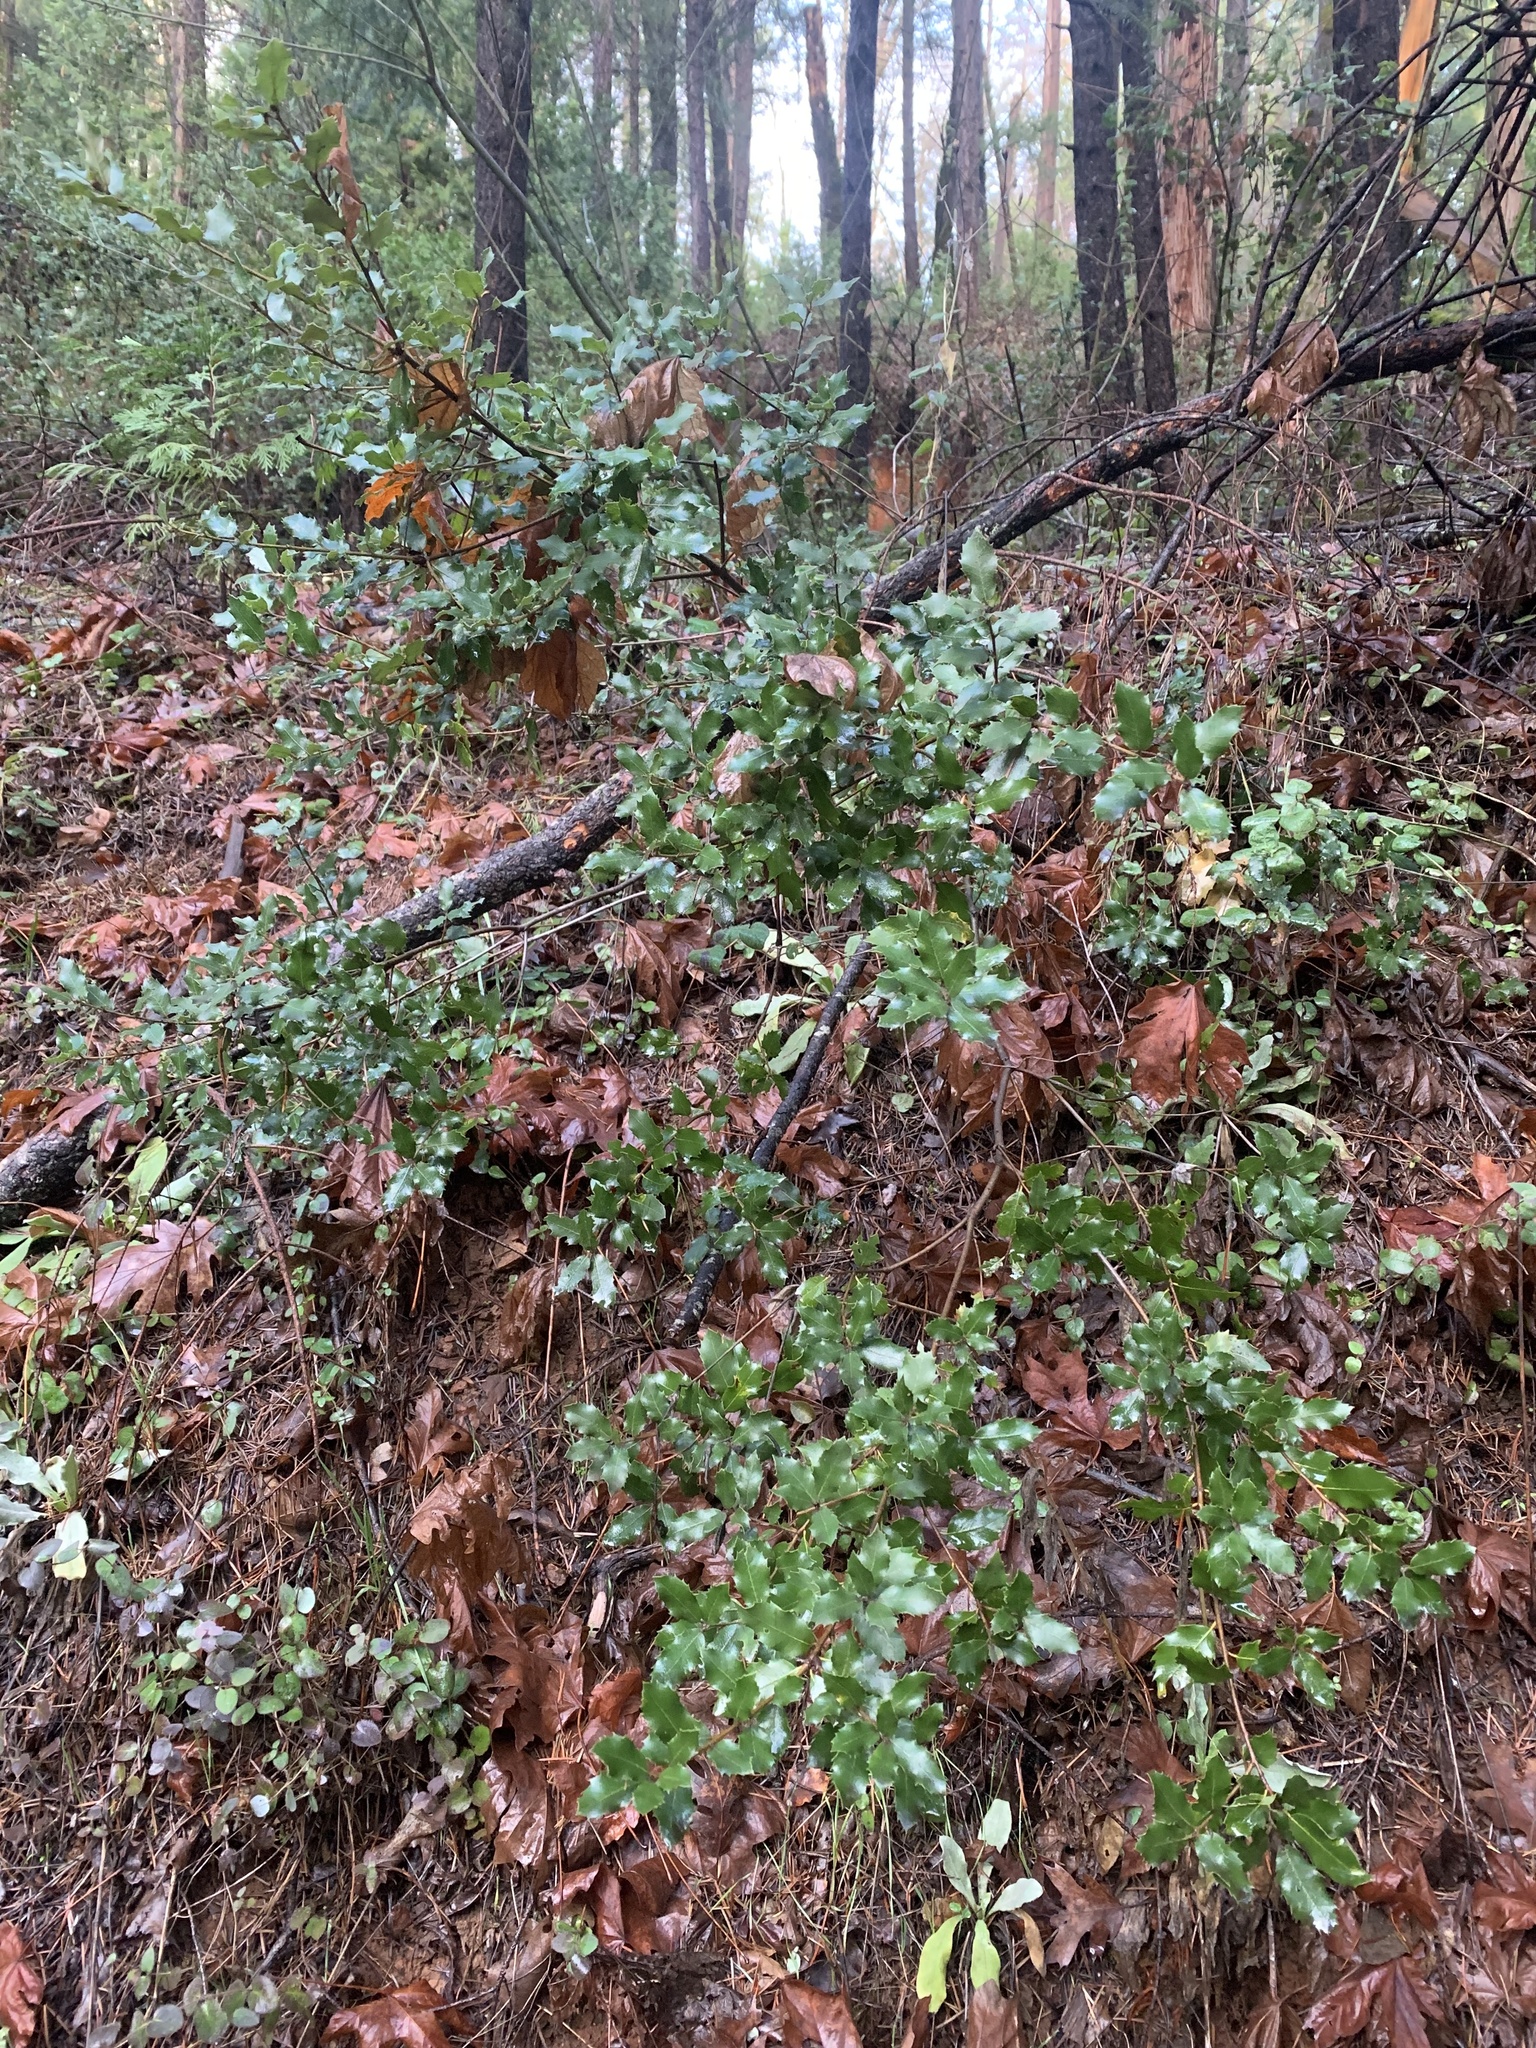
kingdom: Plantae
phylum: Tracheophyta
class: Magnoliopsida
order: Fagales
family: Fagaceae
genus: Quercus
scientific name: Quercus chrysolepis
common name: Canyon live oak
